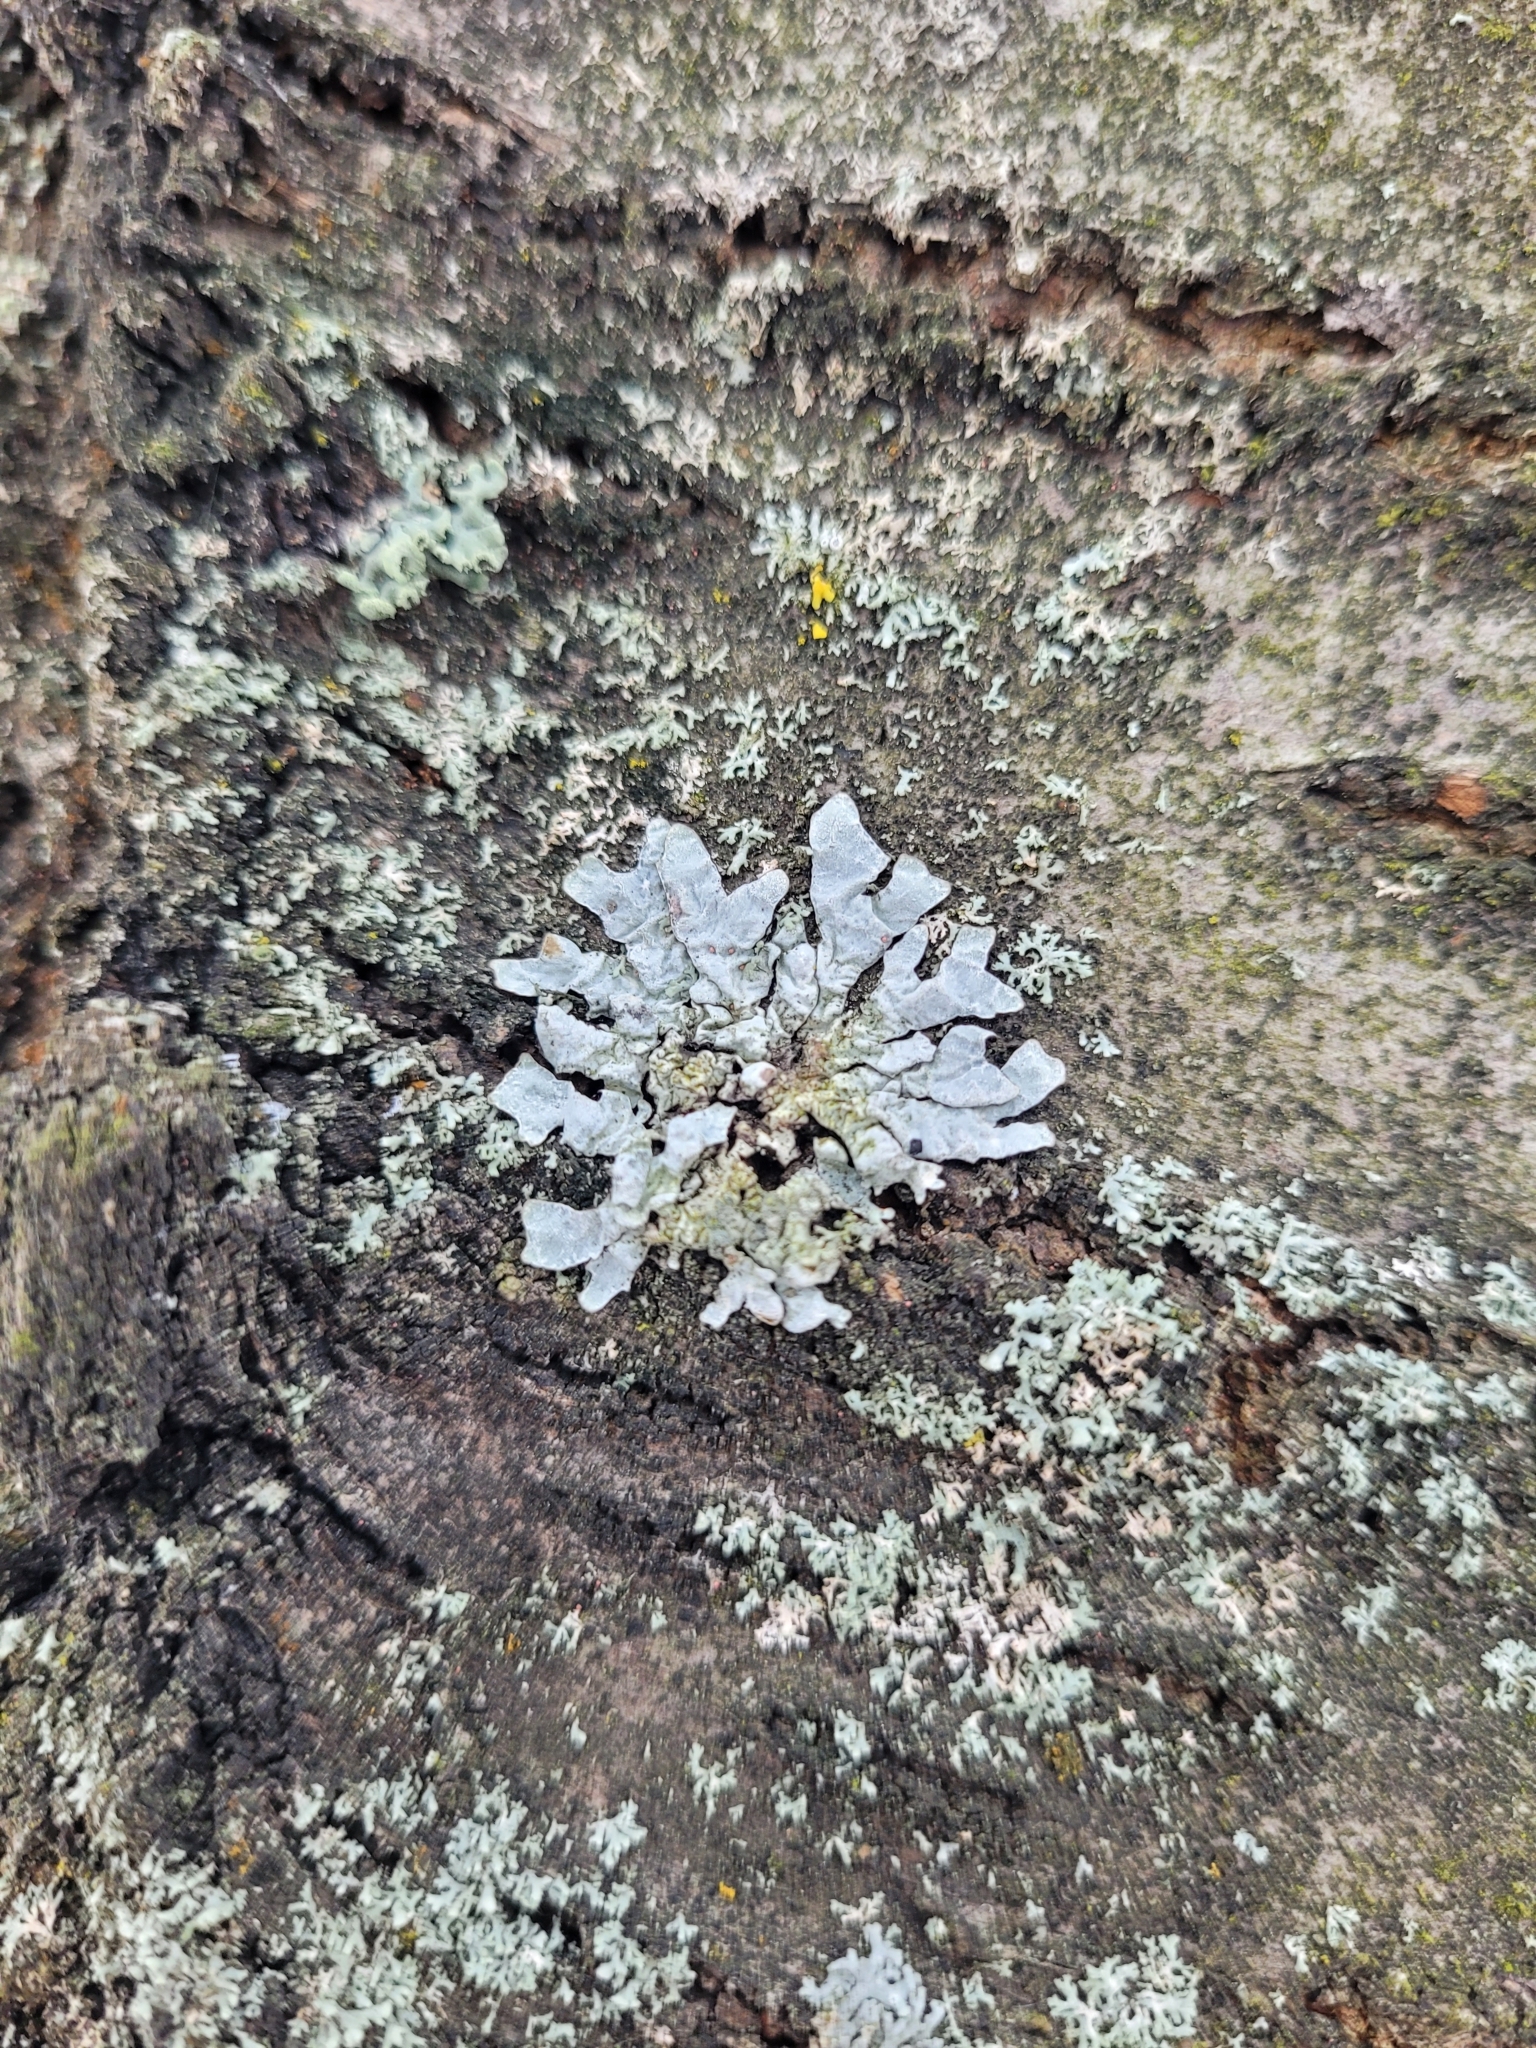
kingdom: Fungi
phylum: Ascomycota
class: Lecanoromycetes
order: Lecanorales
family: Parmeliaceae
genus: Parmelia
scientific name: Parmelia sulcata
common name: Netted shield lichen
